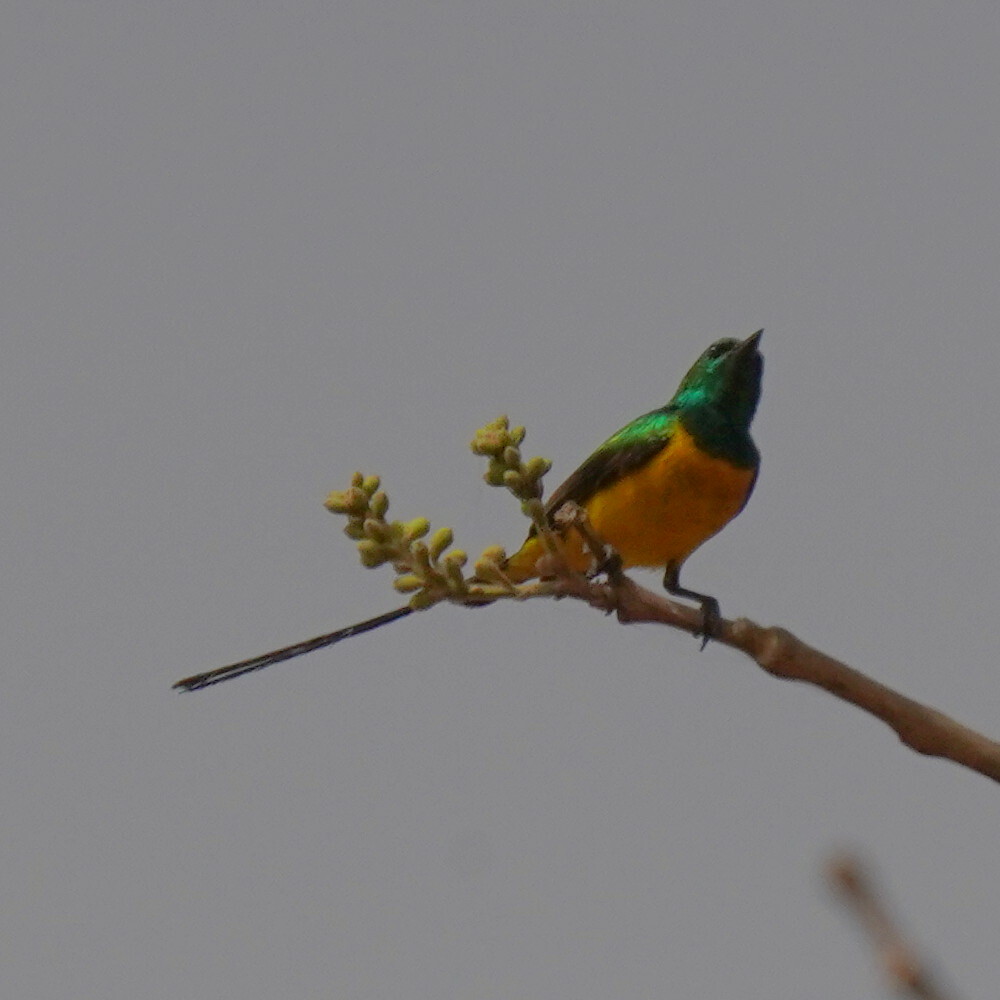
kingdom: Animalia
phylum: Chordata
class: Aves
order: Passeriformes
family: Nectariniidae
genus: Hedydipna
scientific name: Hedydipna platura
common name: Pygmy sunbird
